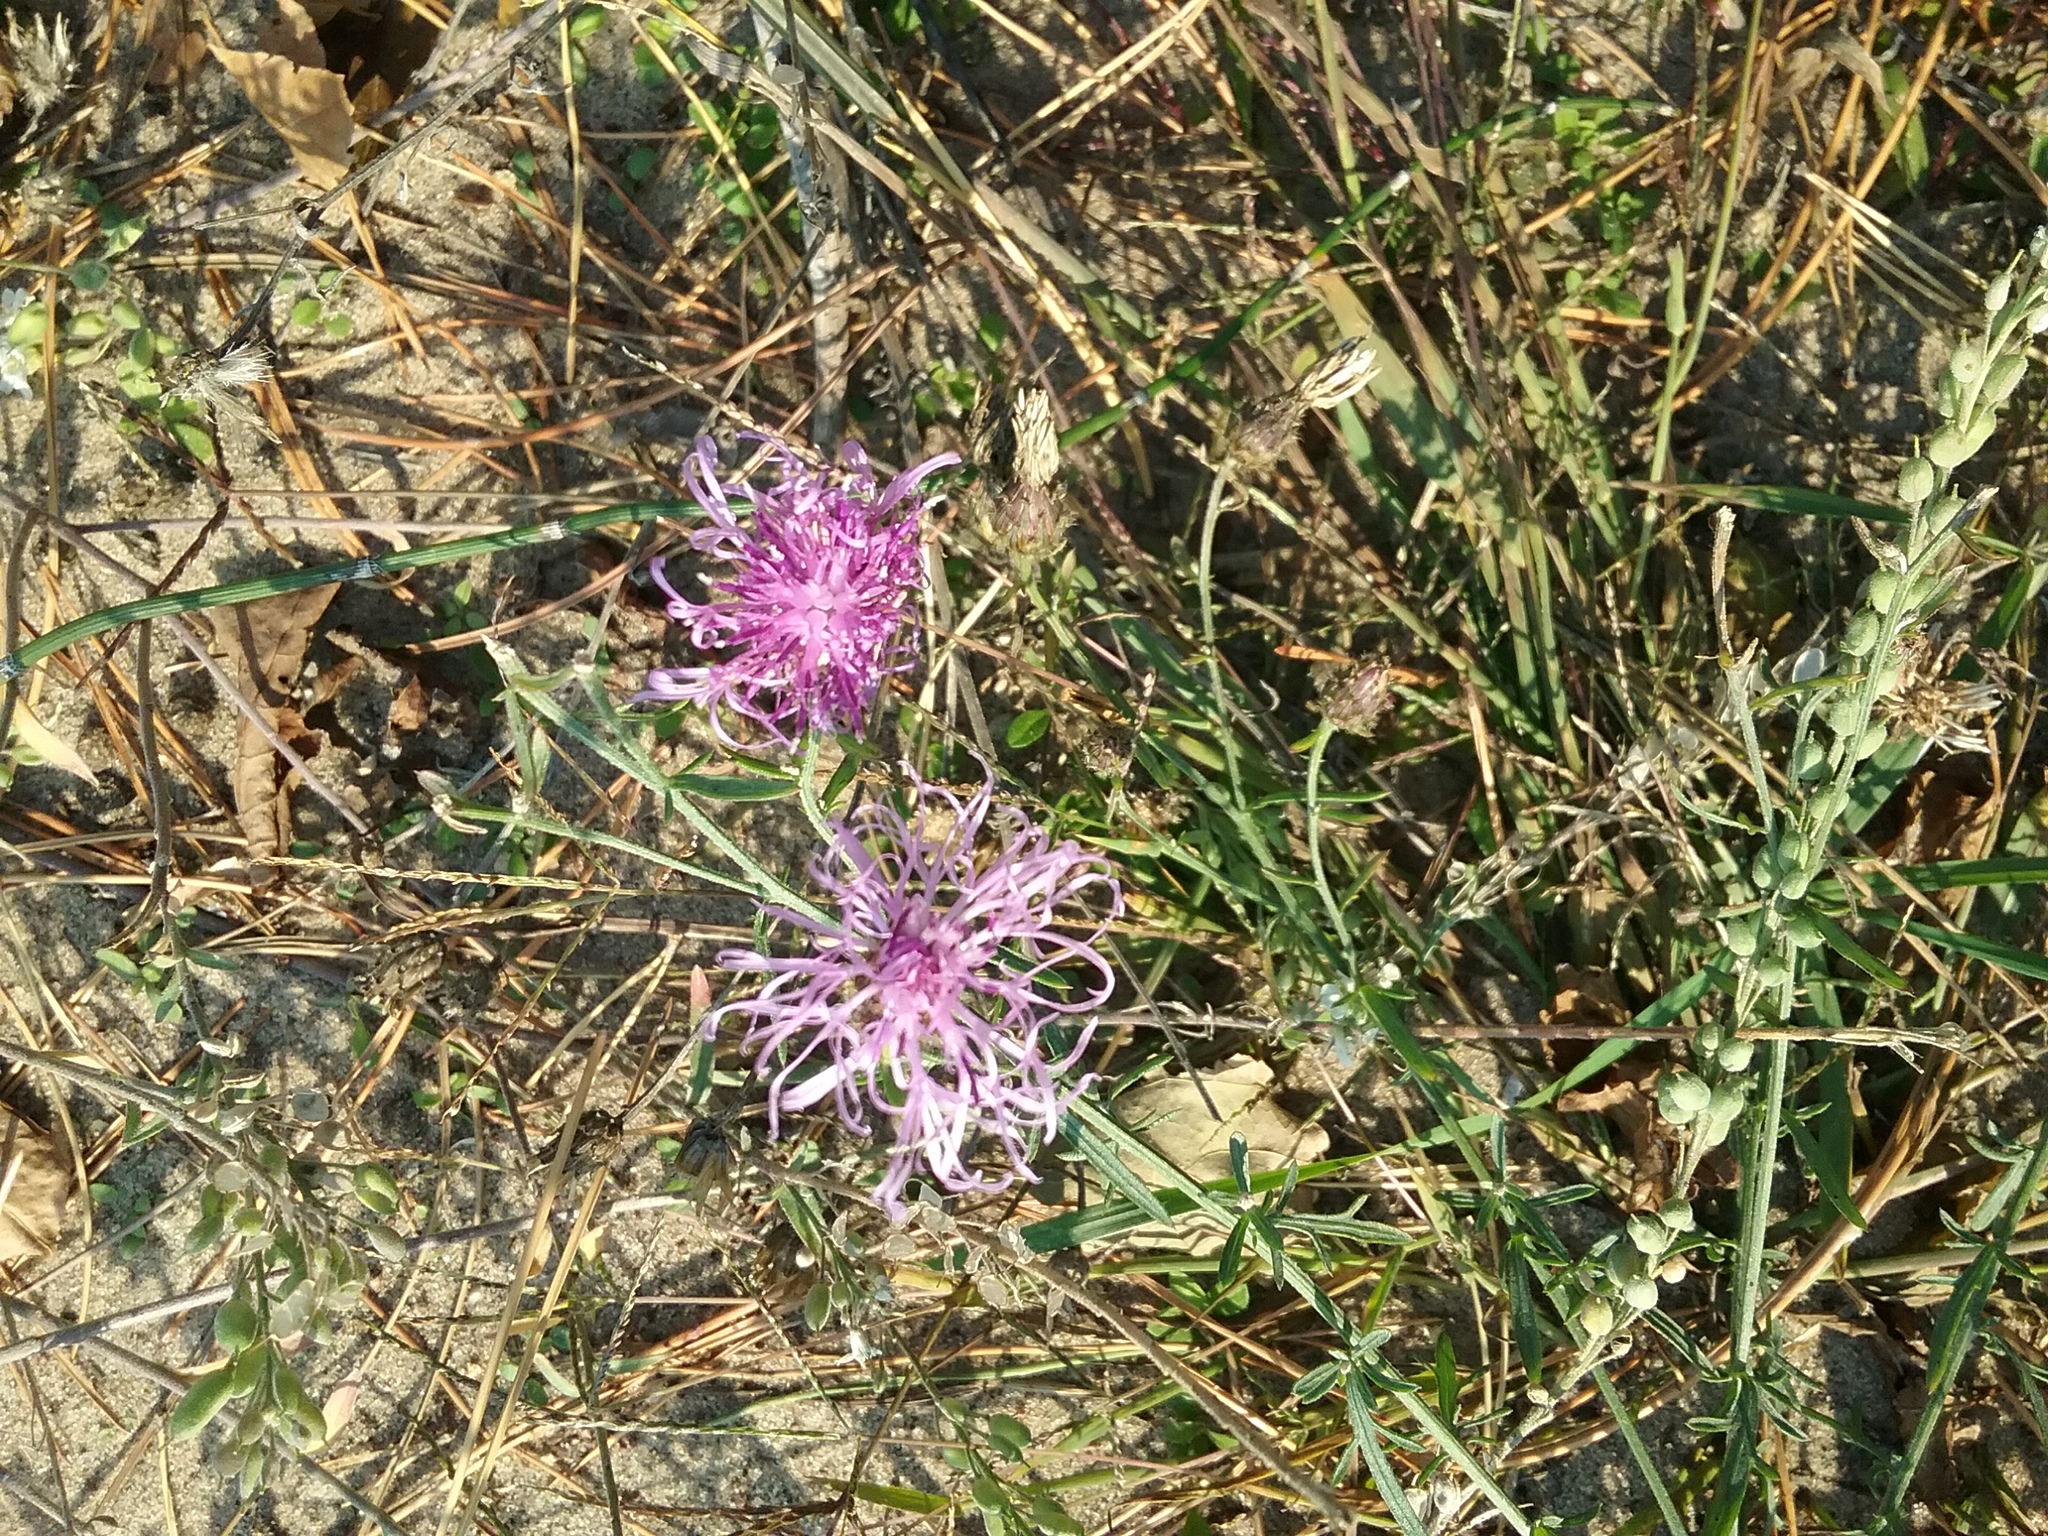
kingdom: Plantae
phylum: Tracheophyta
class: Magnoliopsida
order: Asterales
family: Asteraceae
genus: Centaurea
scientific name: Centaurea stoebe
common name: Spotted knapweed
